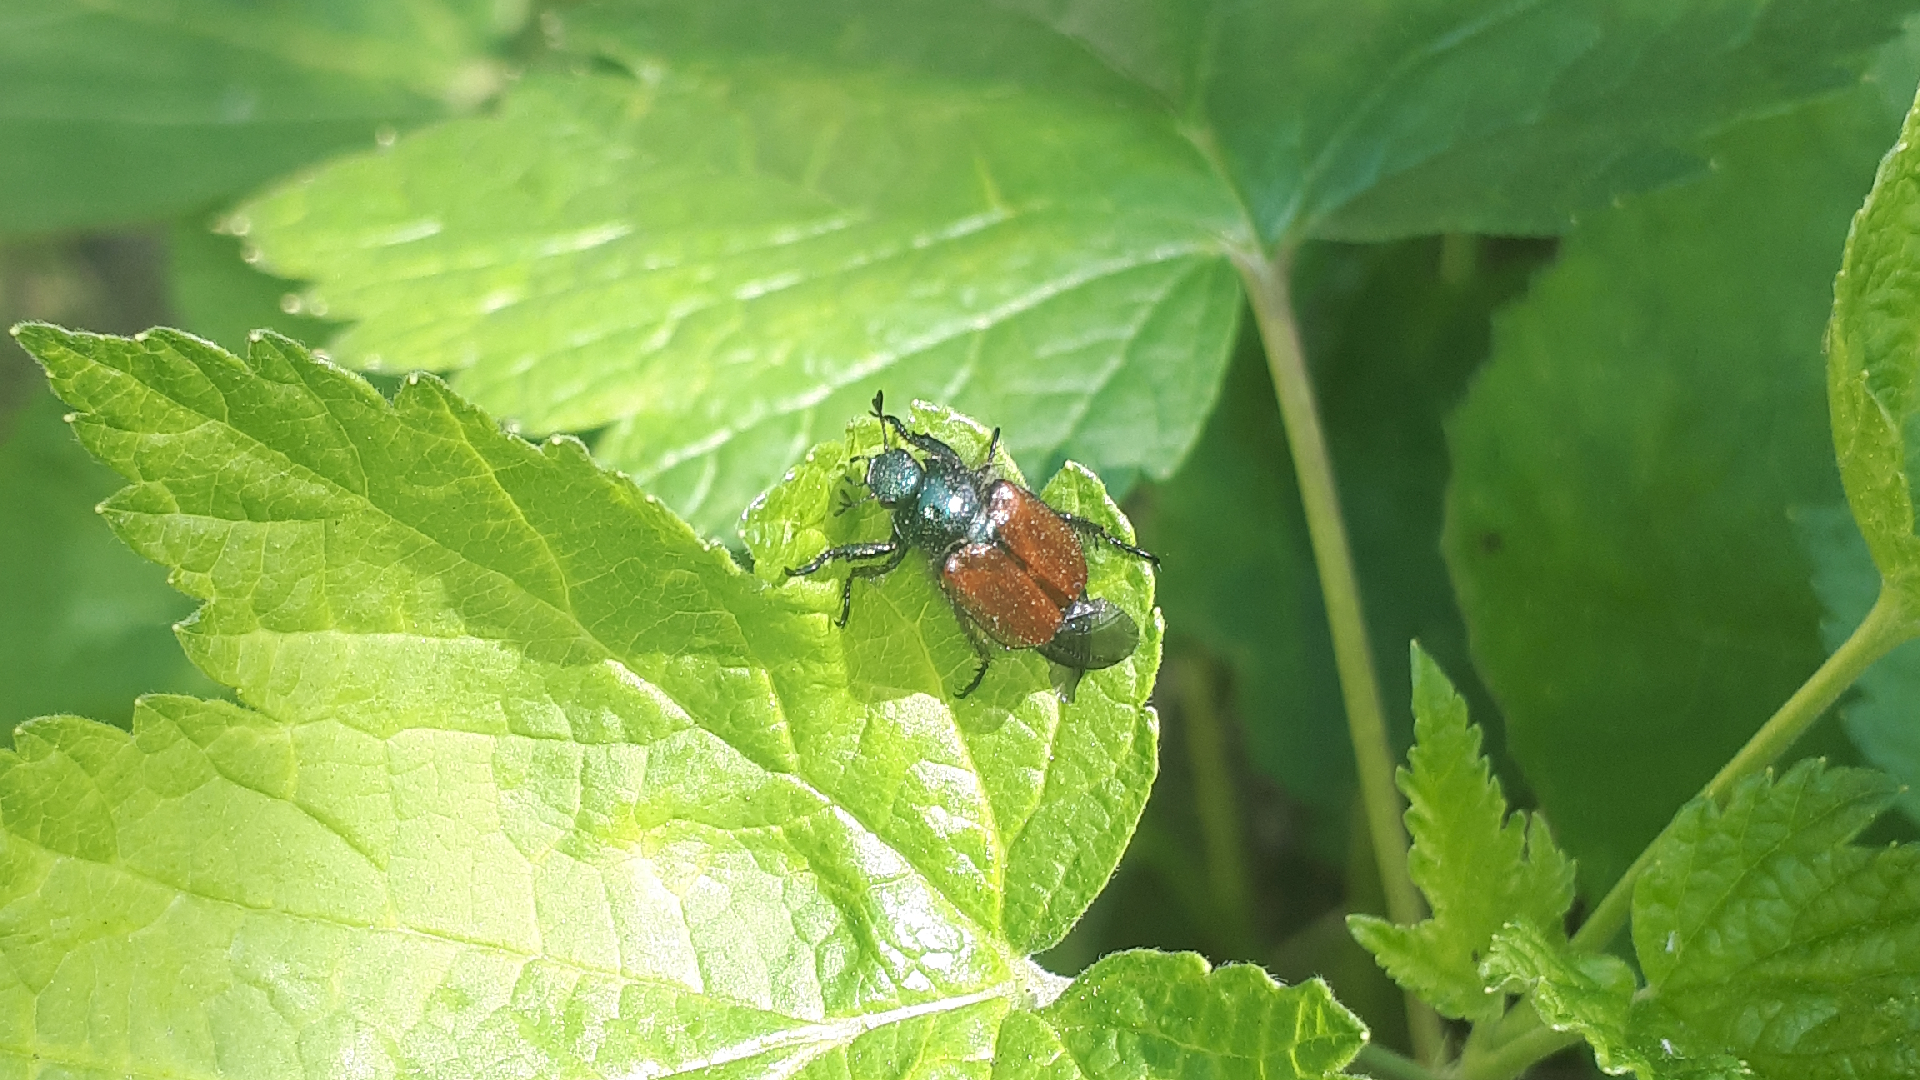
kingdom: Animalia
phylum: Arthropoda
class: Insecta
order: Coleoptera
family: Scarabaeidae
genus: Phyllopertha
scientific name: Phyllopertha horticola
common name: Garden chafer
